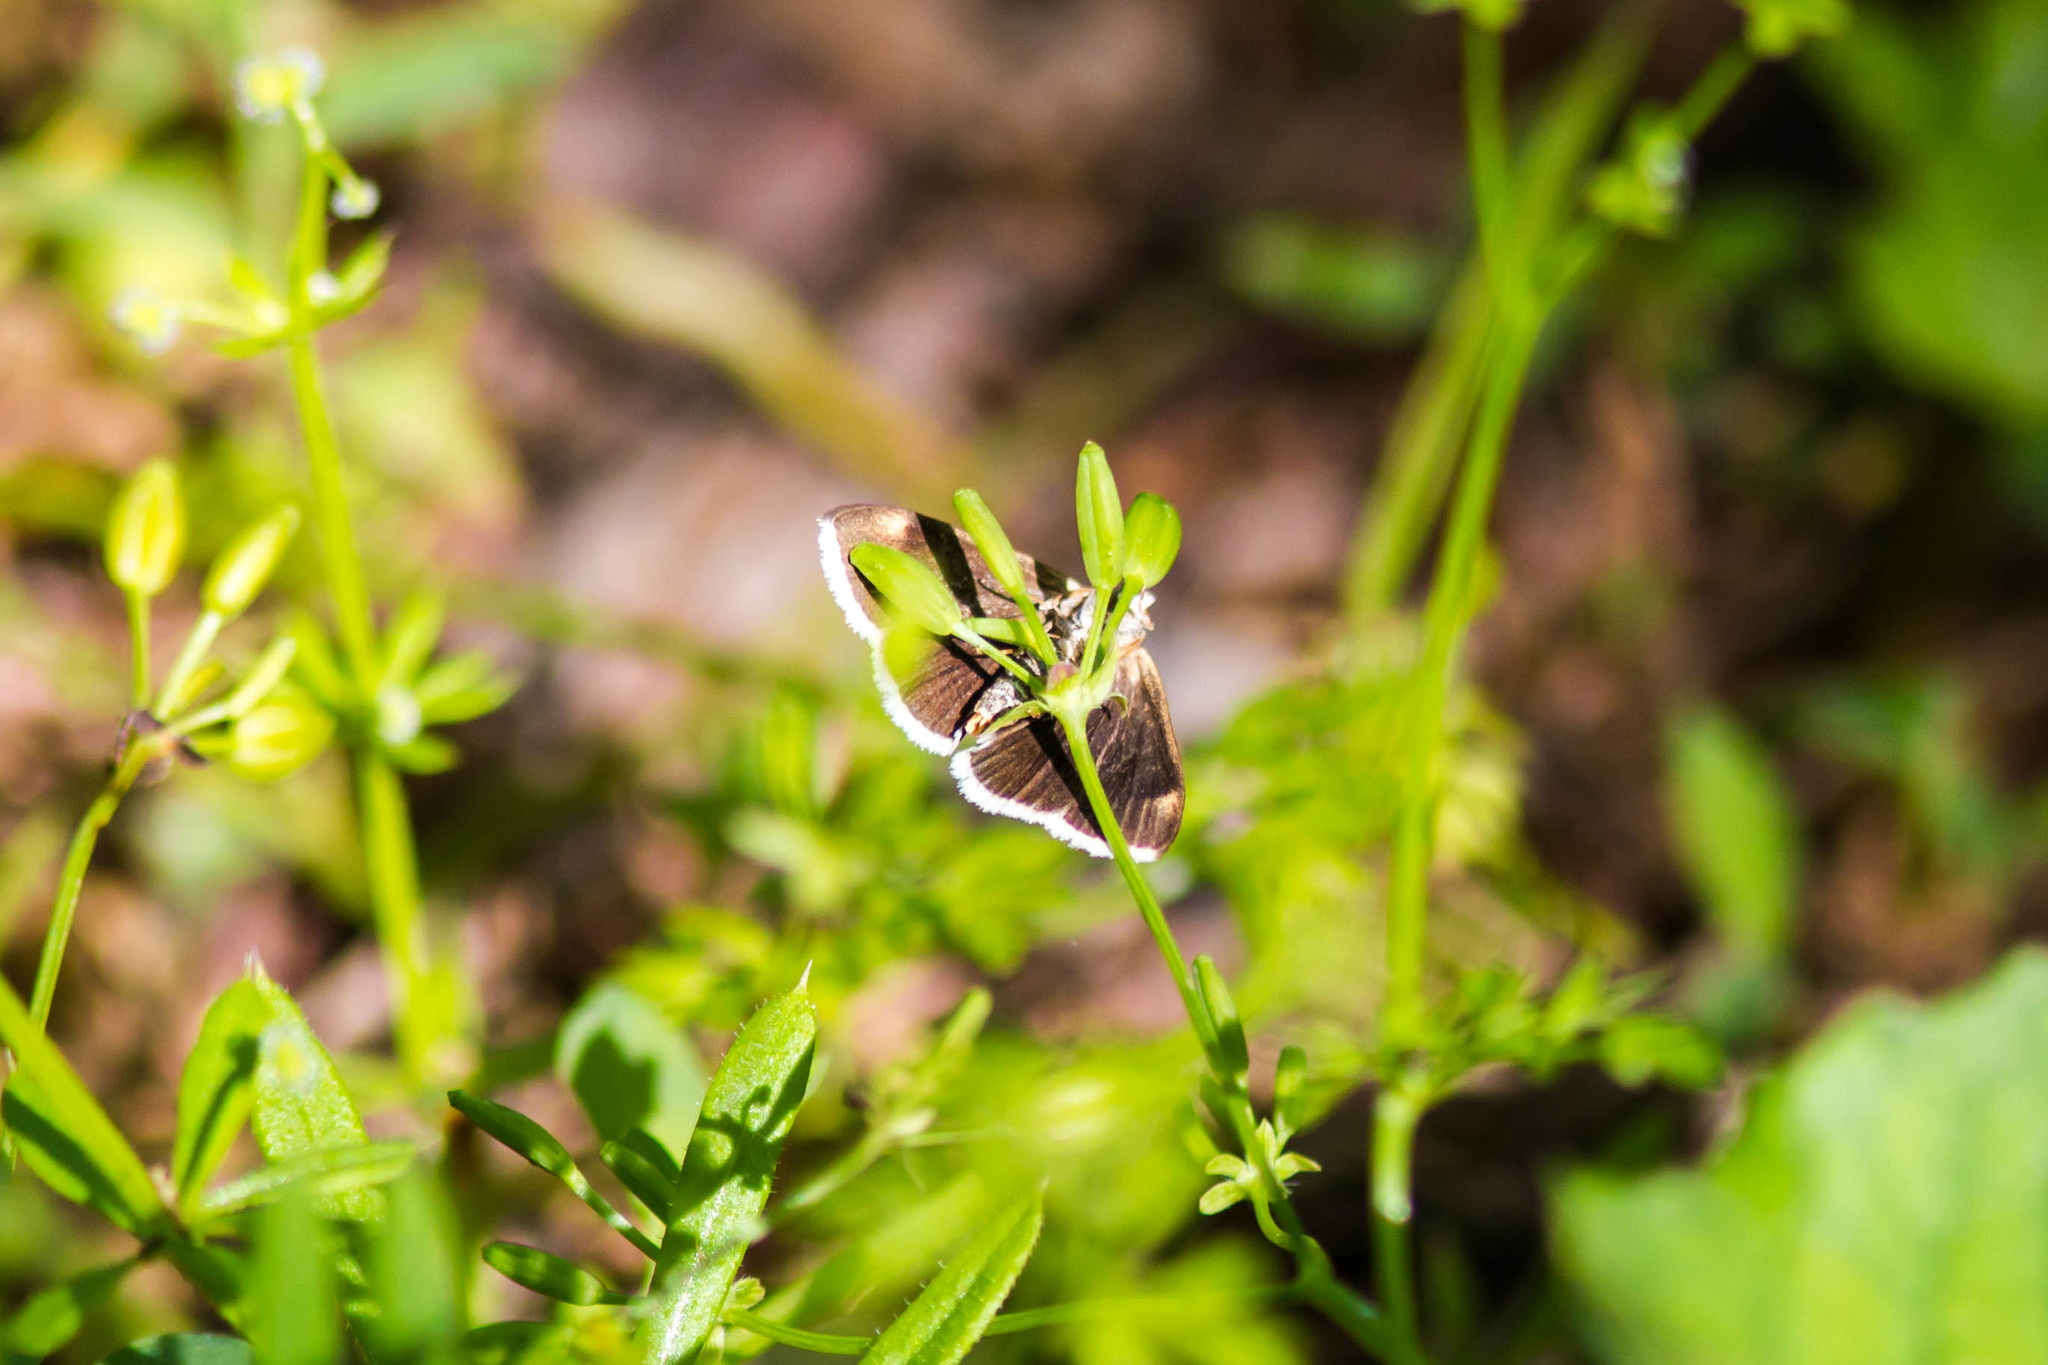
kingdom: Animalia
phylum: Arthropoda
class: Insecta
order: Lepidoptera
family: Crambidae
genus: Pyrausta
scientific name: Pyrausta niveicilialis
